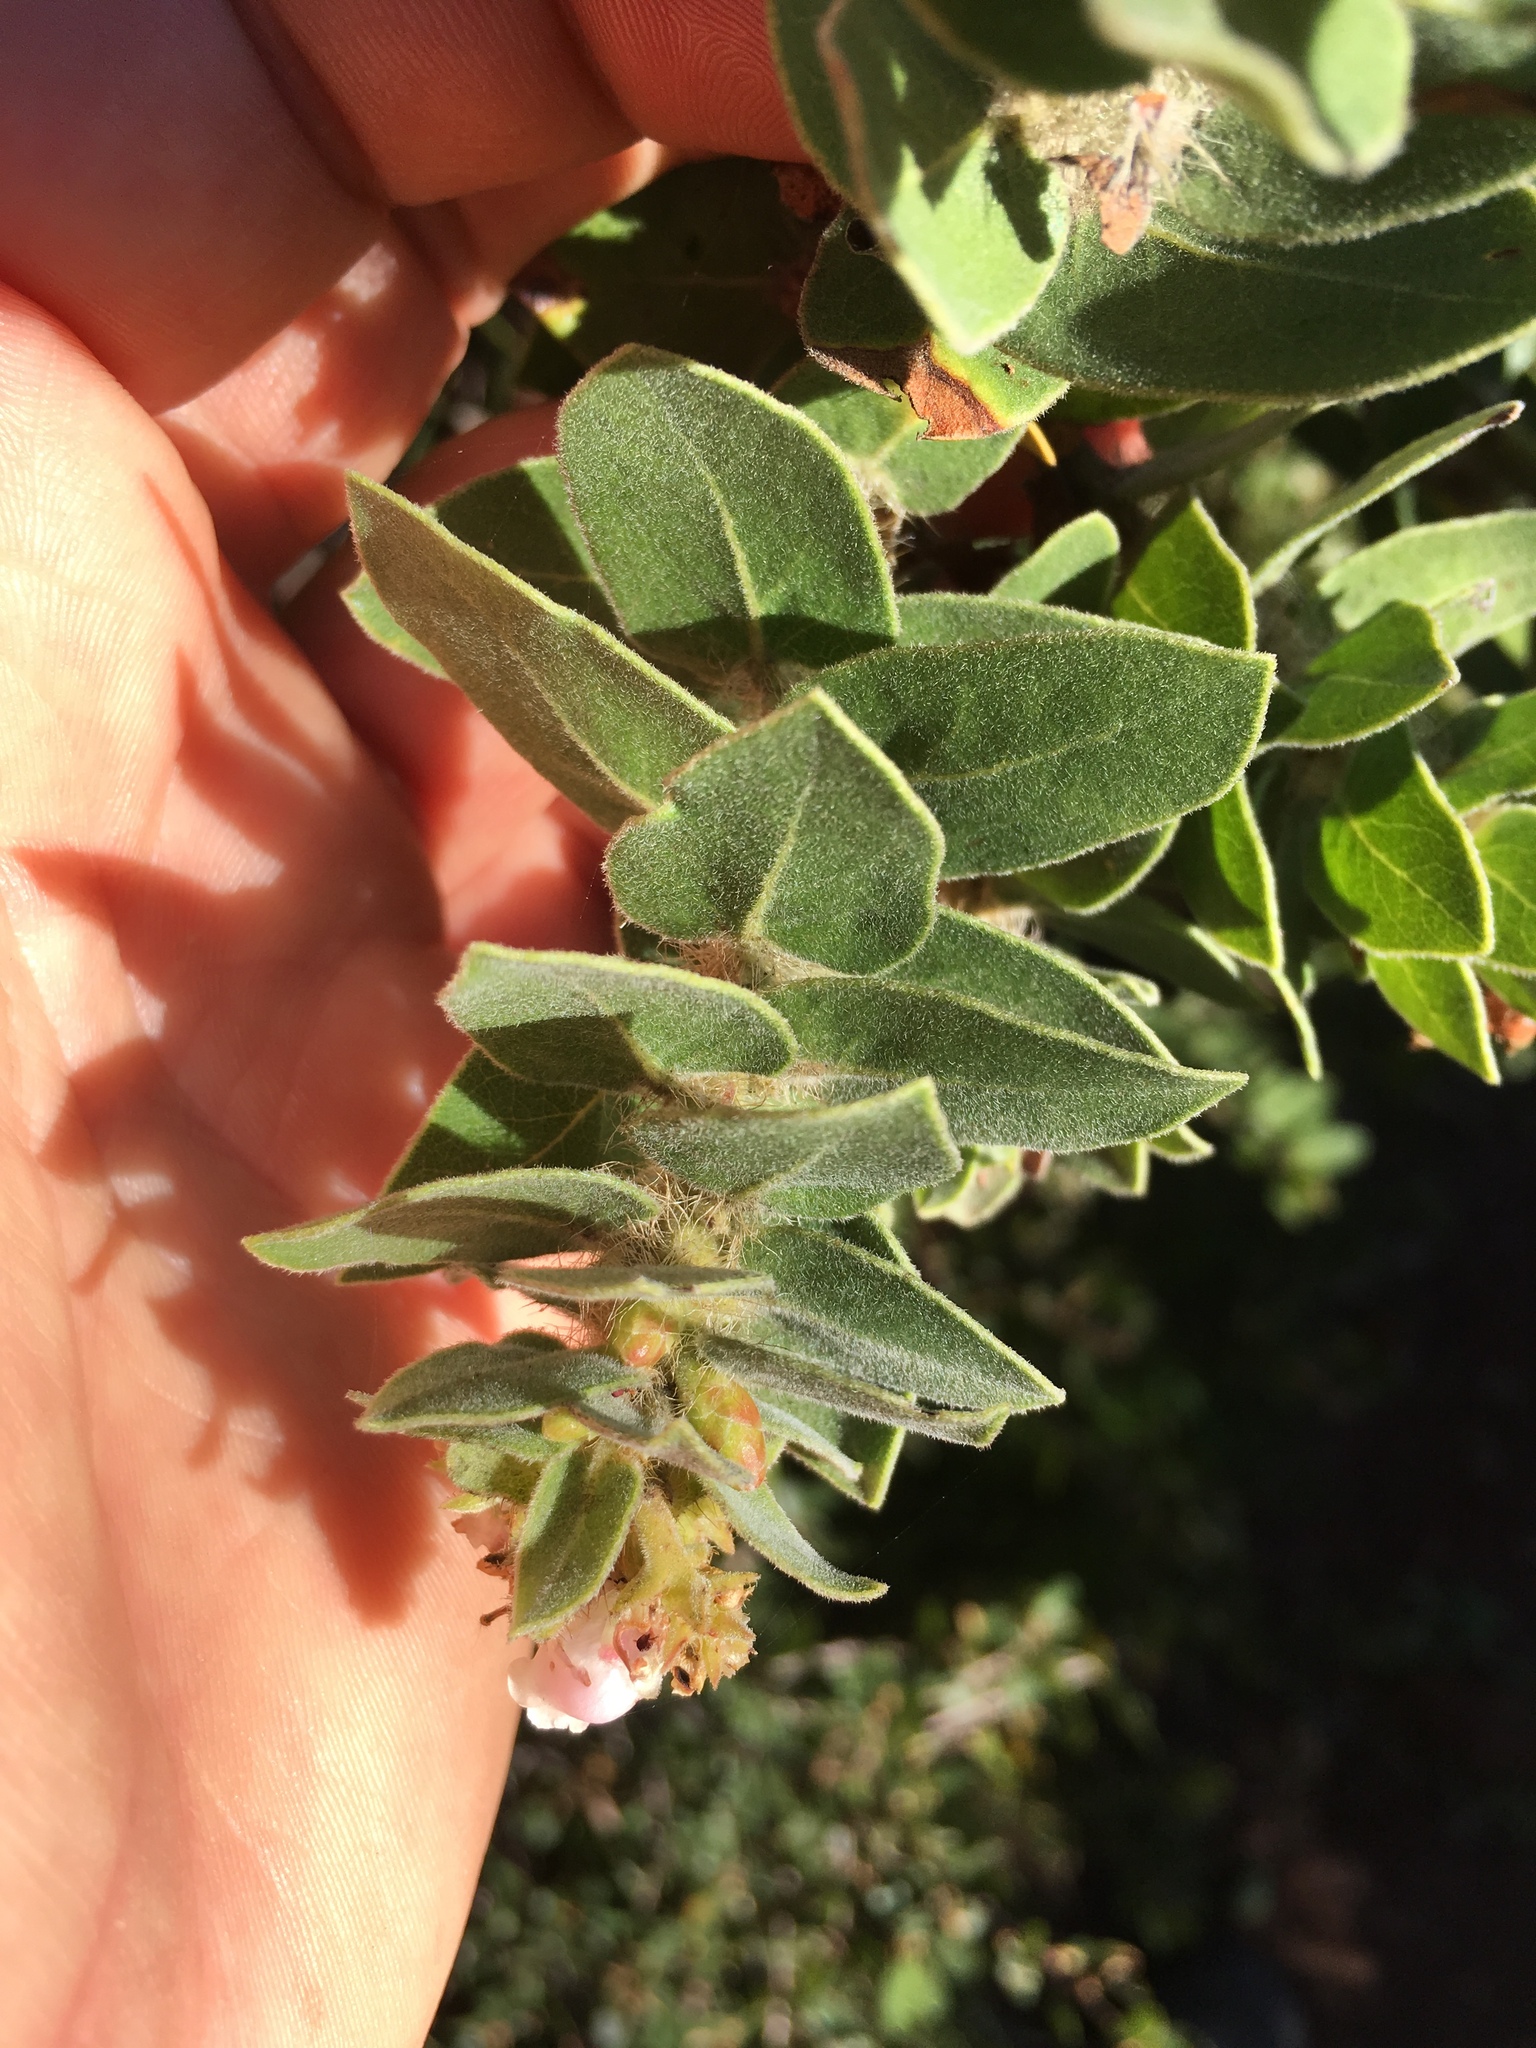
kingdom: Plantae
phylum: Tracheophyta
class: Magnoliopsida
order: Ericales
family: Ericaceae
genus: Arctostaphylos
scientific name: Arctostaphylos viridissima
